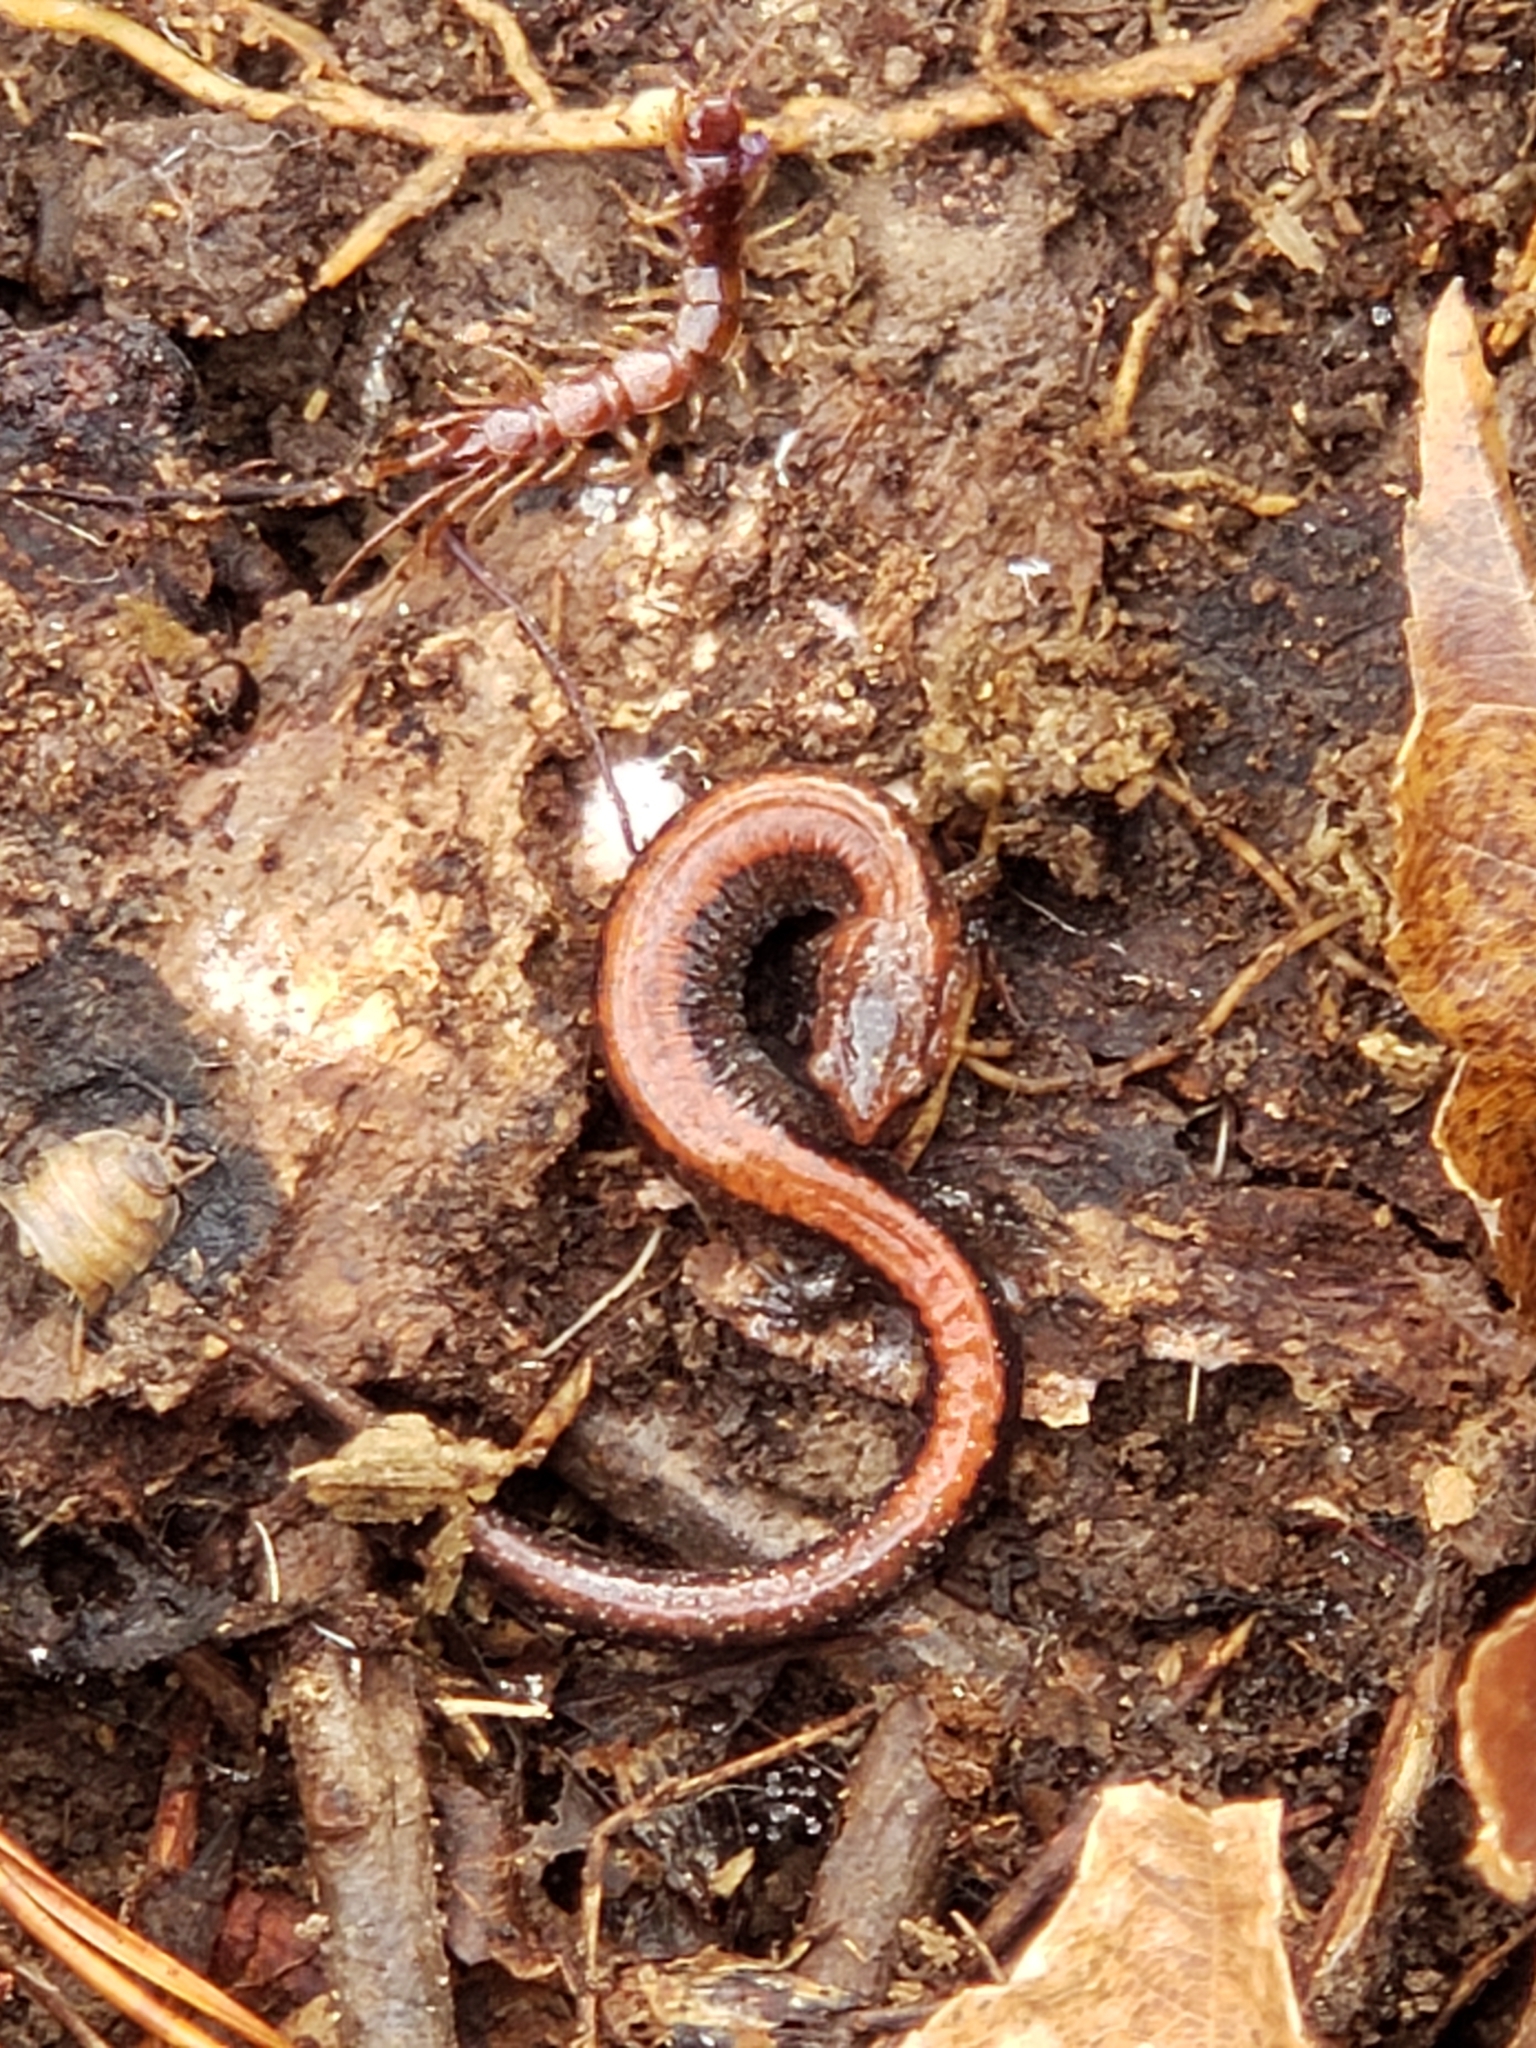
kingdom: Animalia
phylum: Chordata
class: Amphibia
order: Caudata
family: Plethodontidae
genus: Plethodon
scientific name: Plethodon cinereus
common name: Redback salamander
